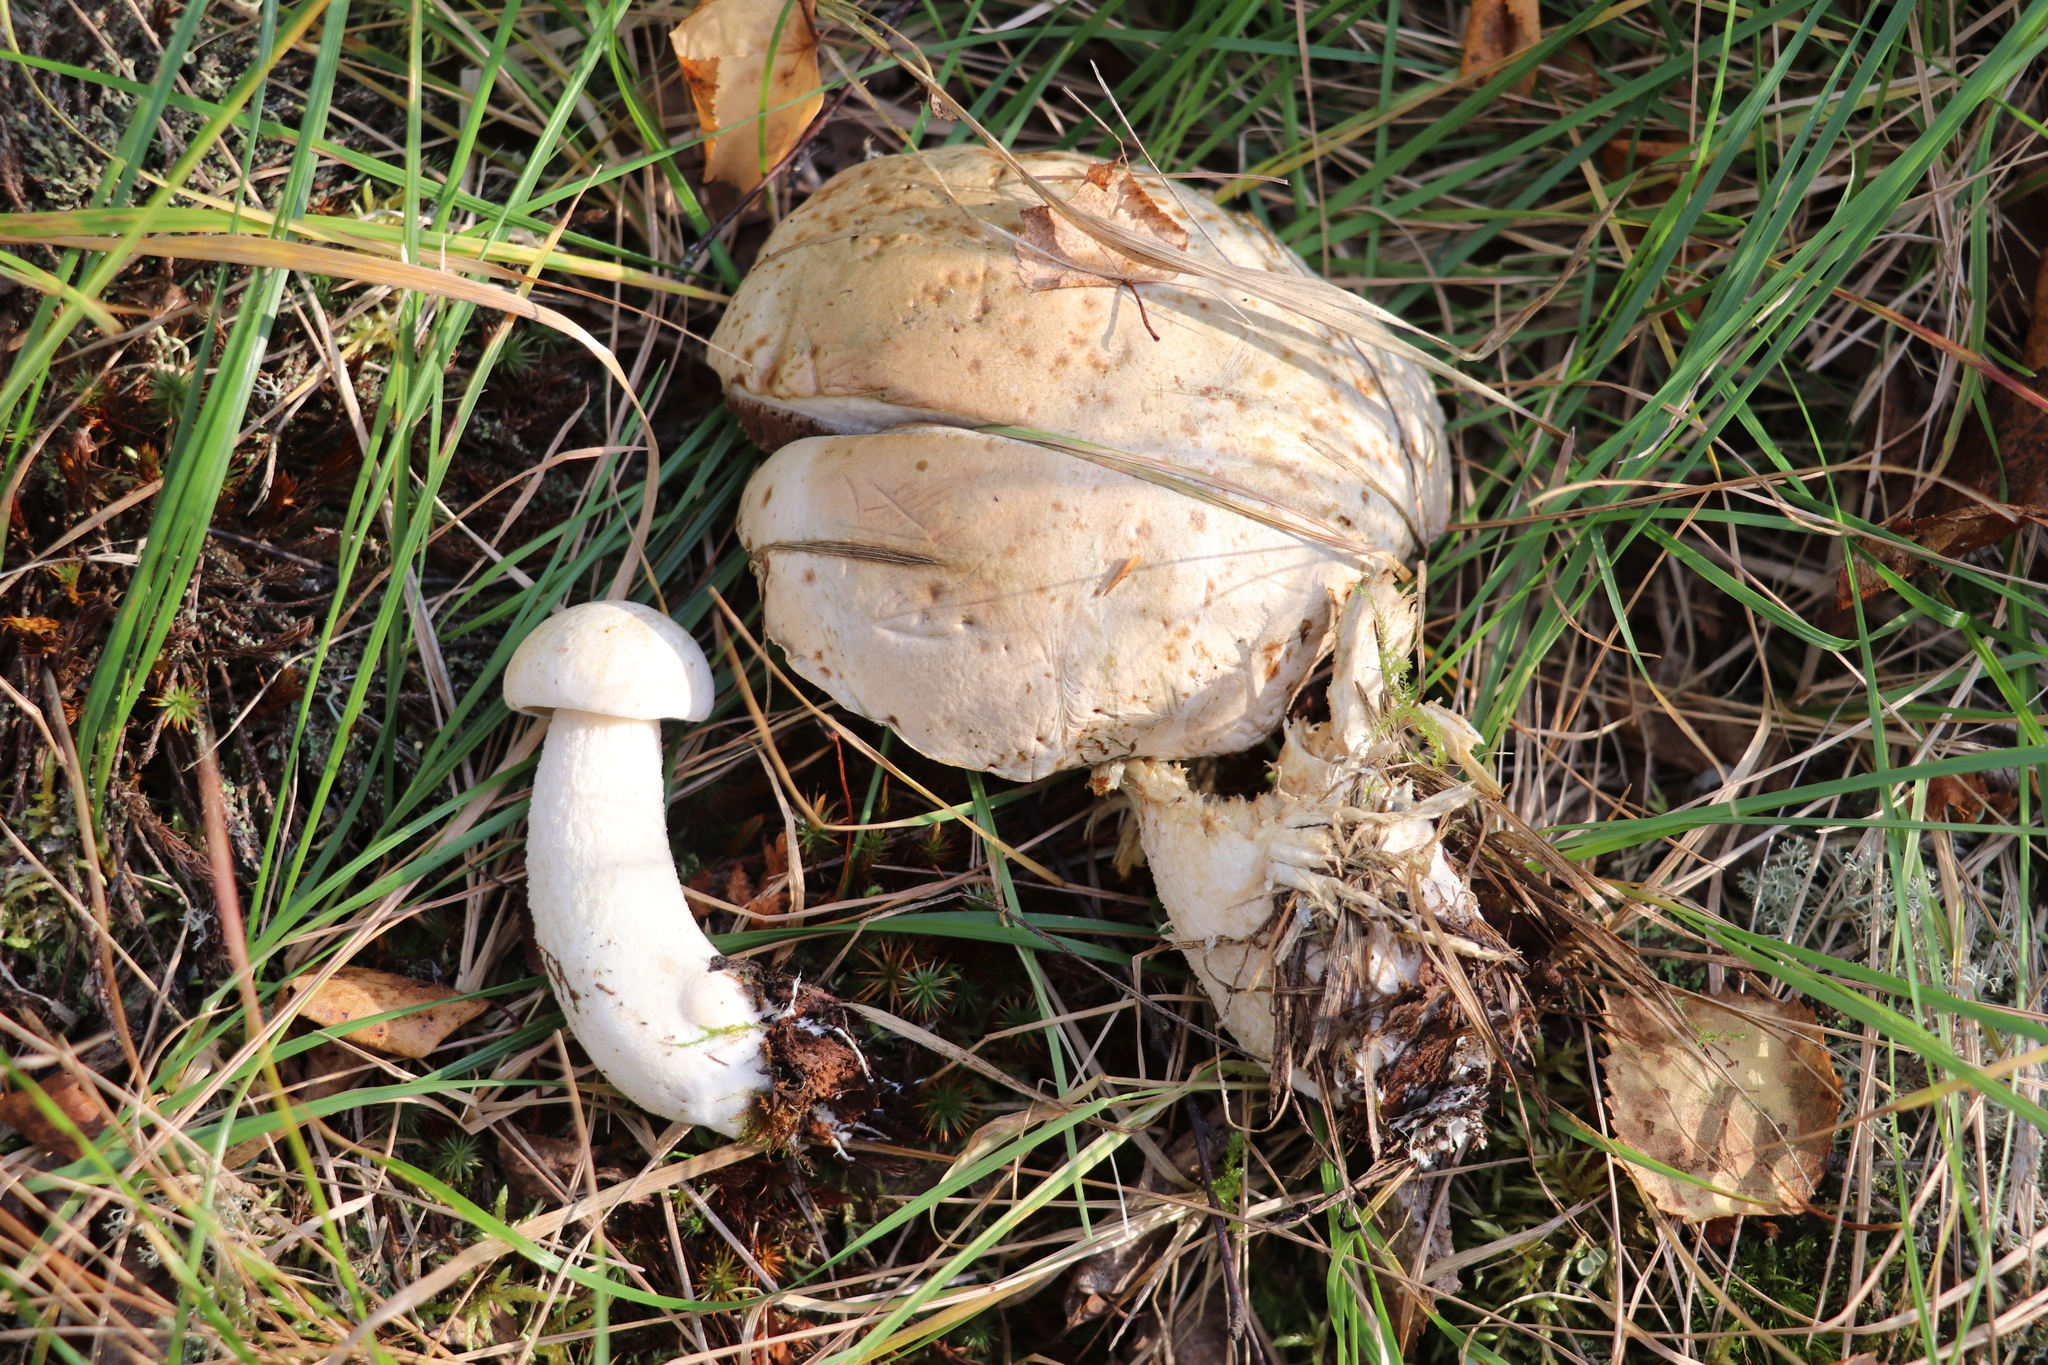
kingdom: Fungi
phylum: Basidiomycota
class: Agaricomycetes
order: Boletales
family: Boletaceae
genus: Leccinum
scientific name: Leccinum holopus
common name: Ghost bolete
